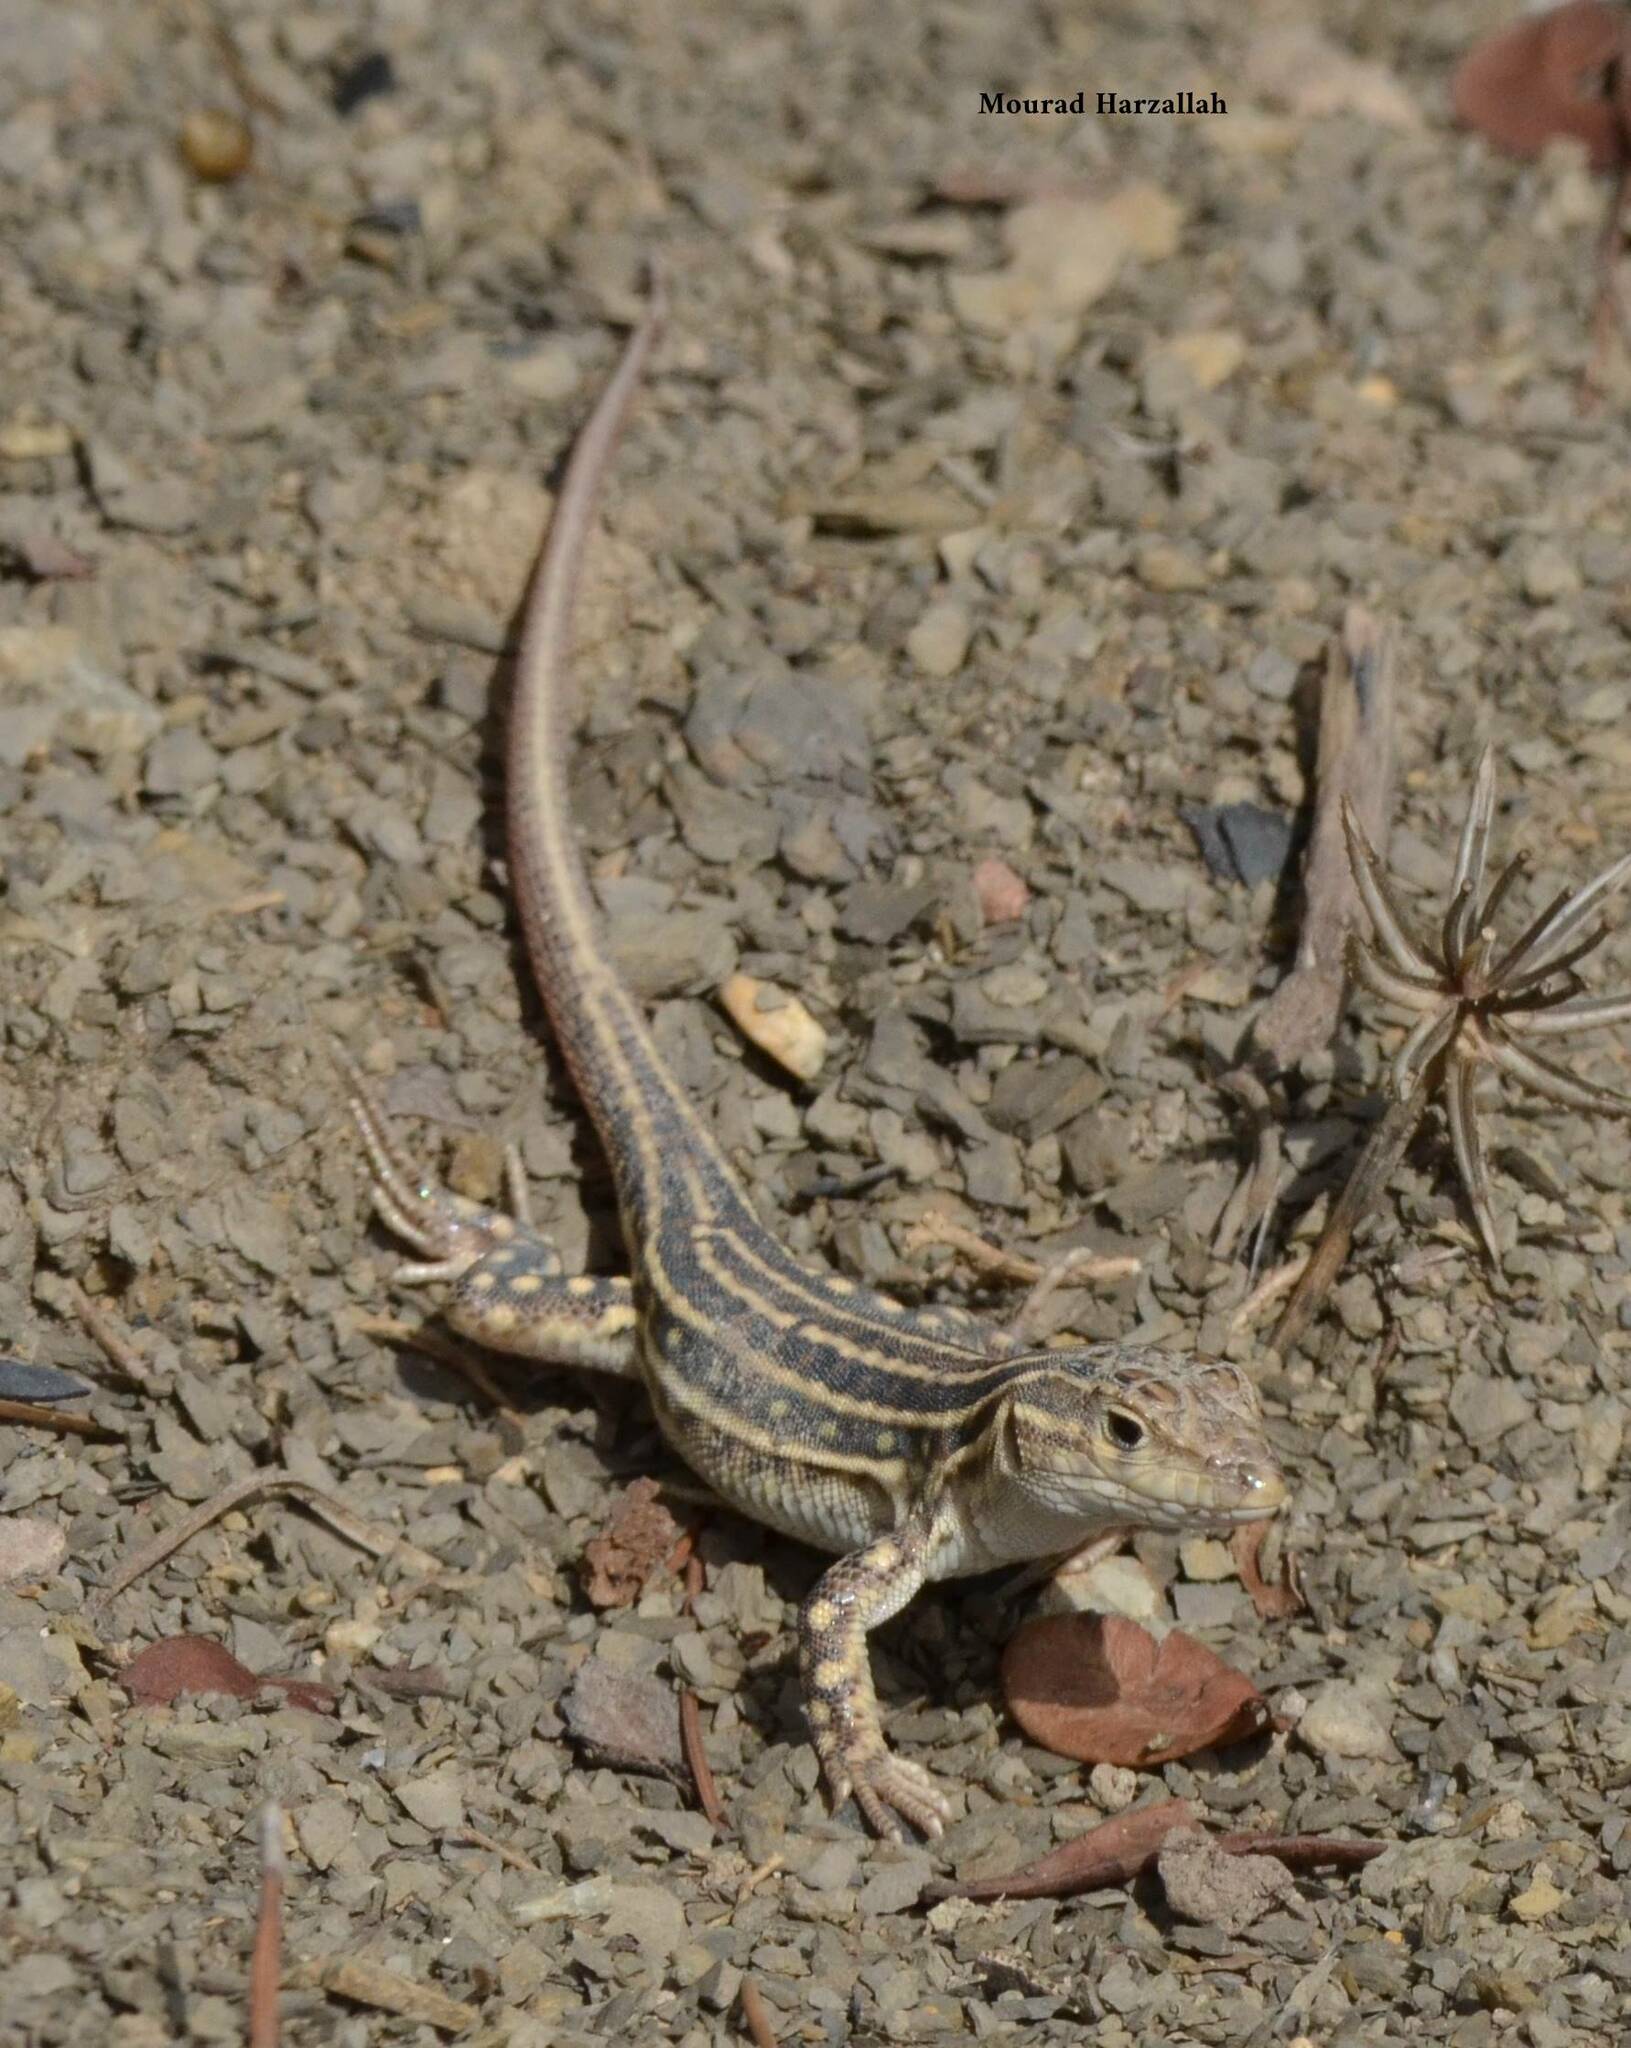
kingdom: Animalia
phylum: Chordata
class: Squamata
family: Lacertidae
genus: Acanthodactylus
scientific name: Acanthodactylus erythrurus
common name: Spiny-footed lizard
